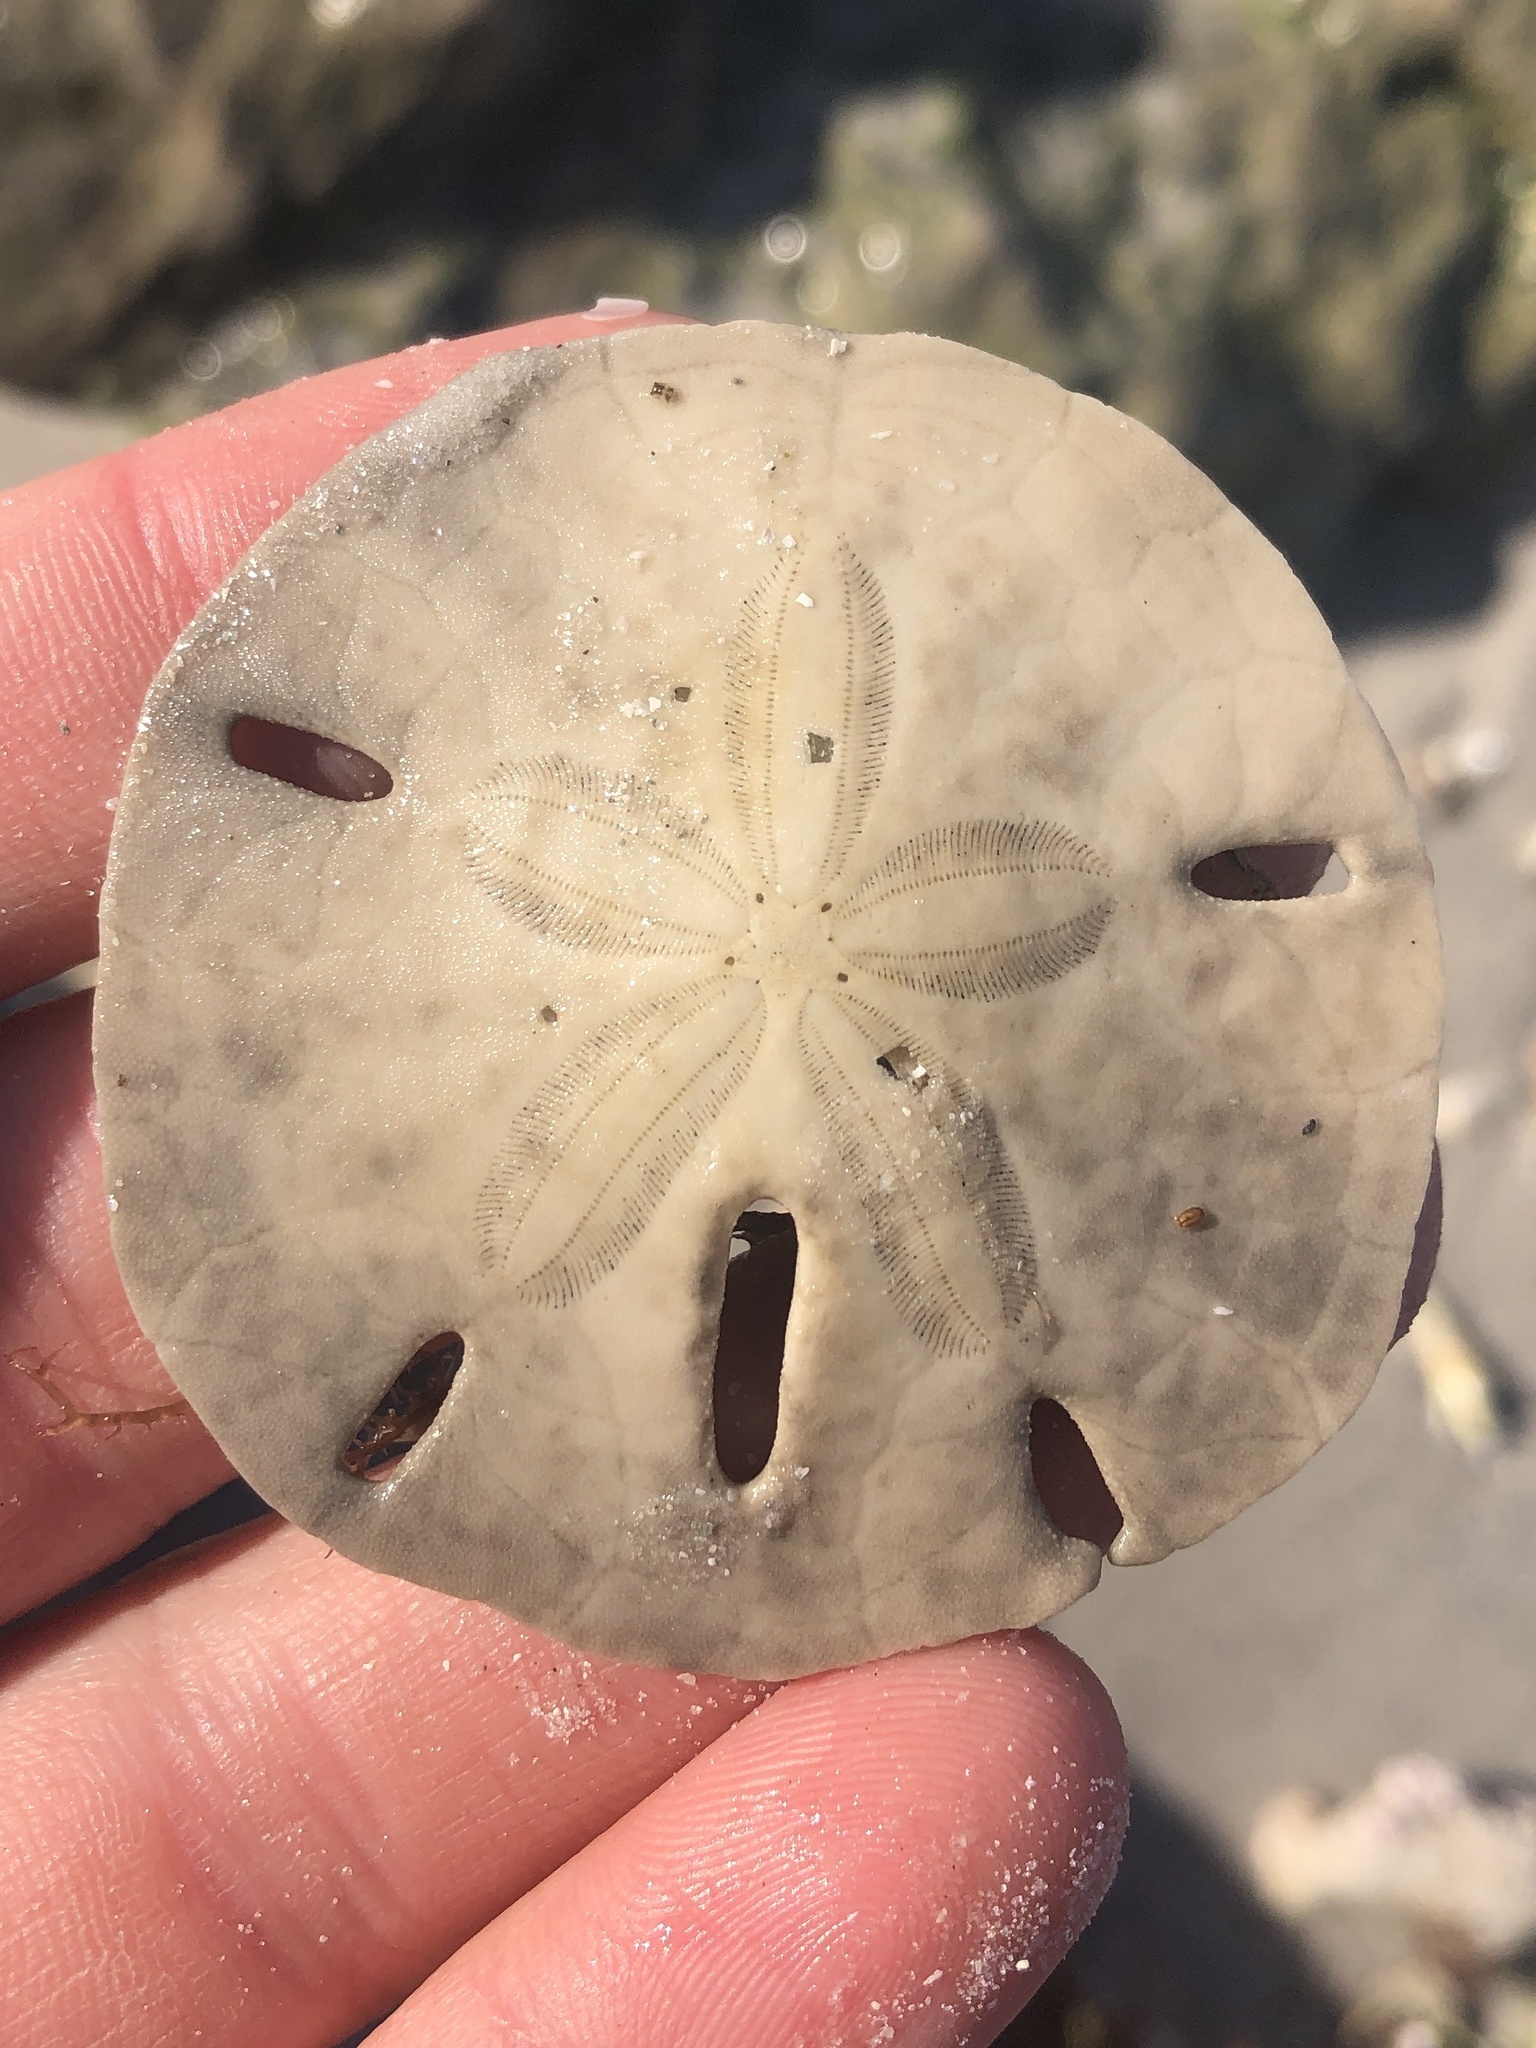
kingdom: Animalia
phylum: Echinodermata
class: Echinoidea
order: Echinolampadacea
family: Mellitidae
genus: Mellita
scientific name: Mellita tenuis
